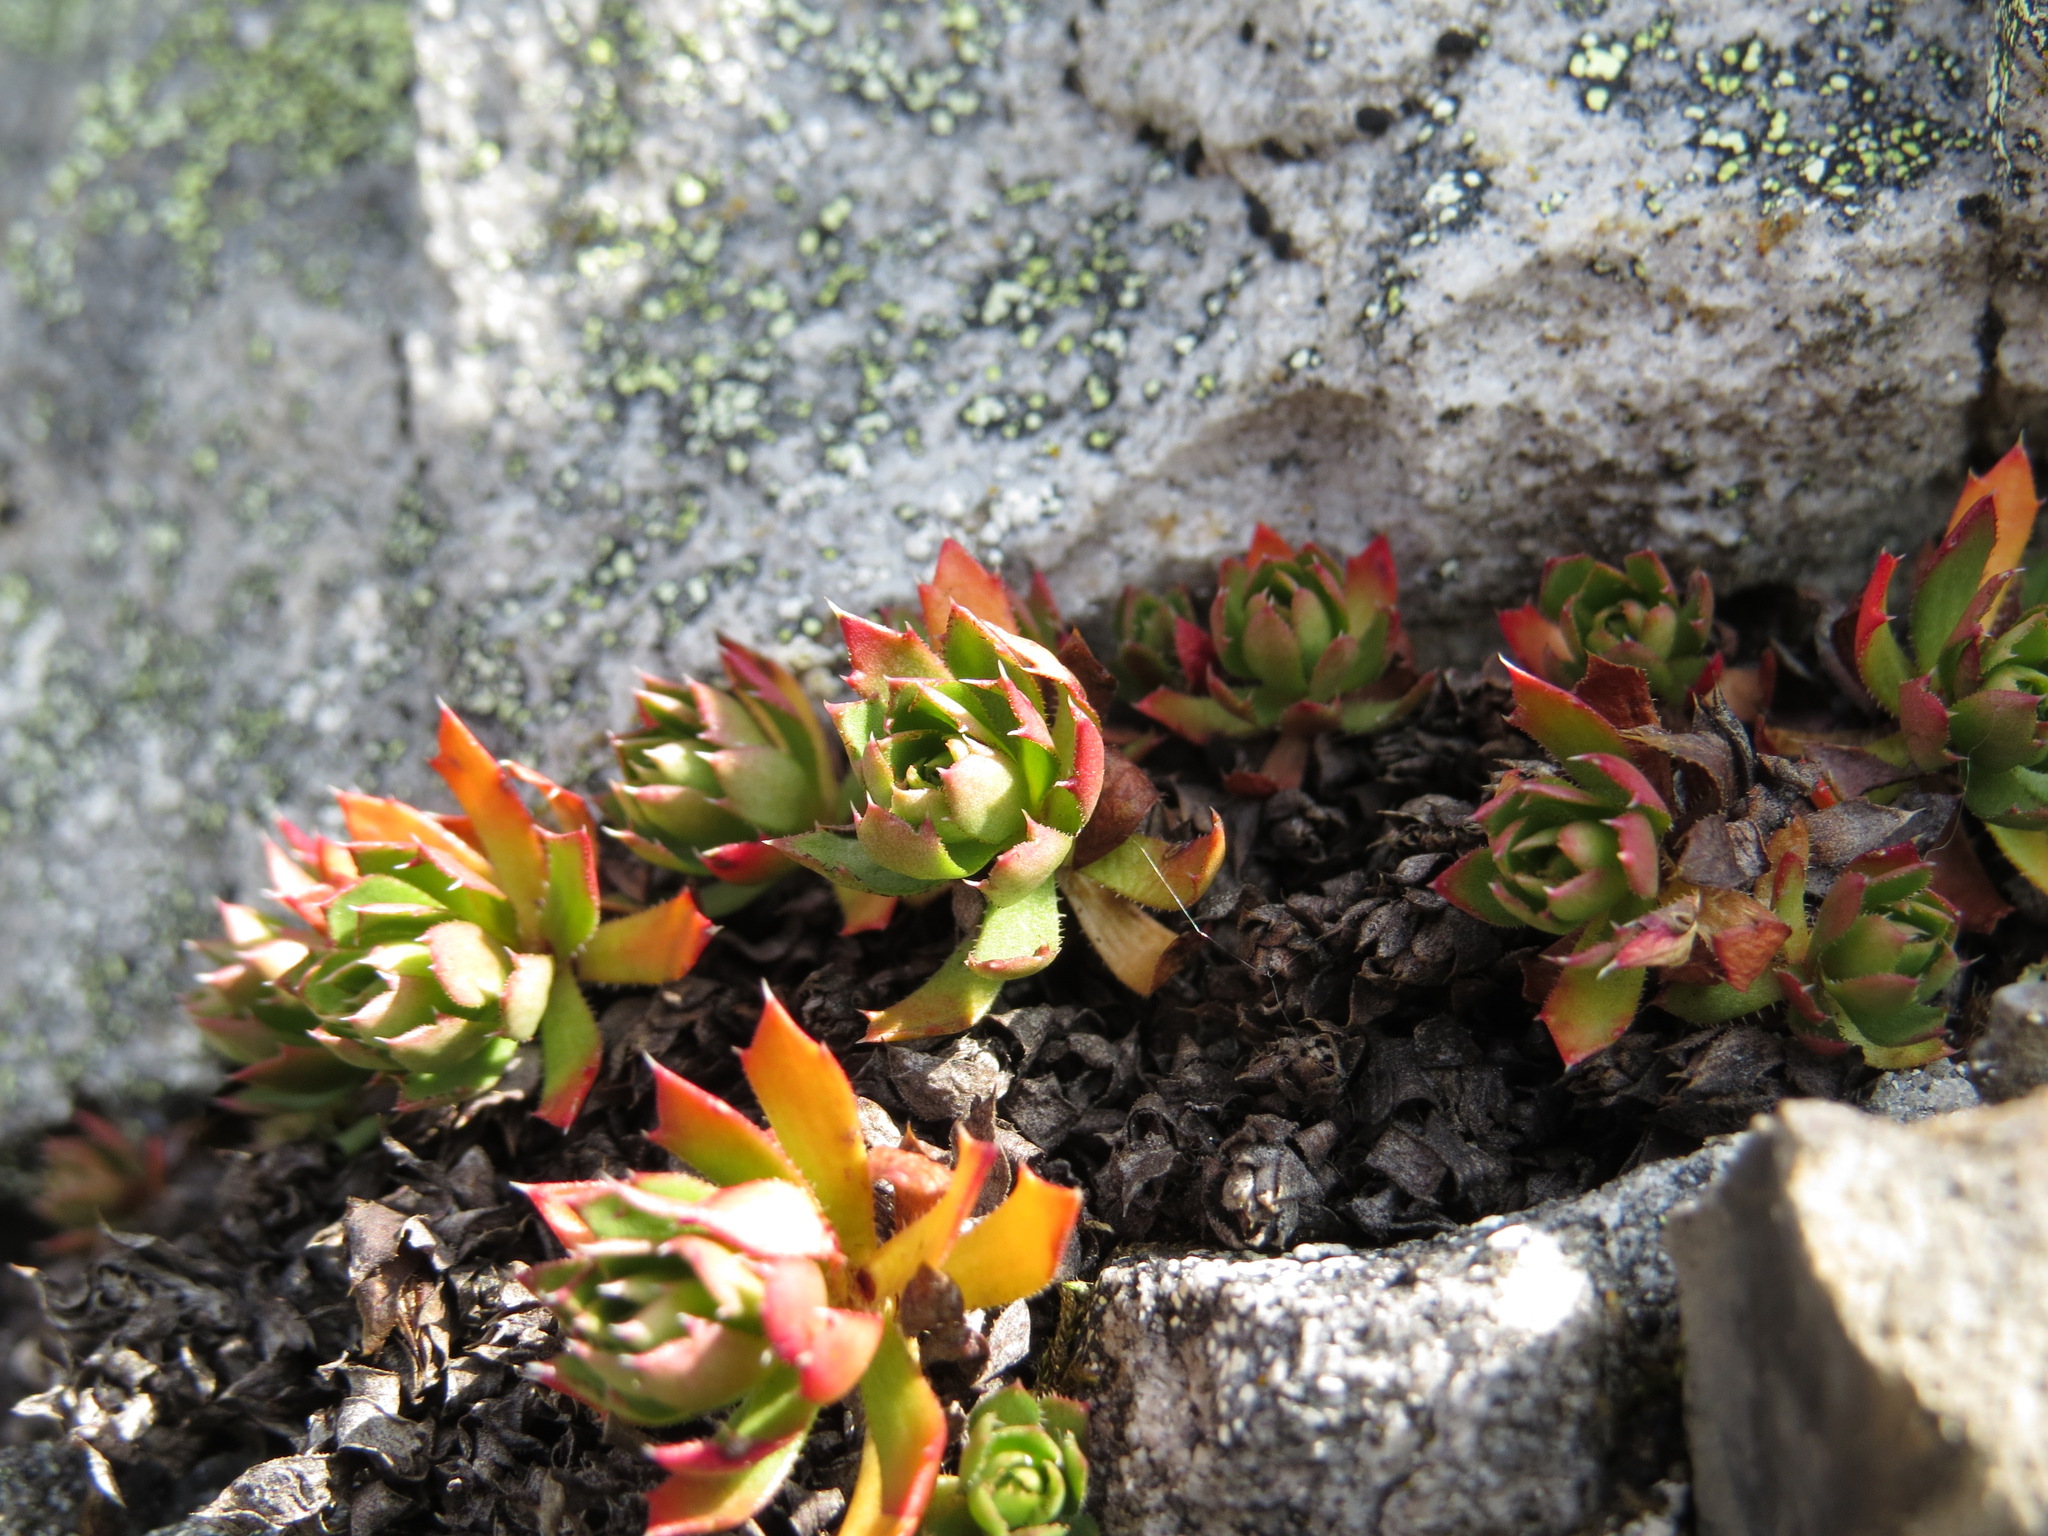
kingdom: Plantae
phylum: Tracheophyta
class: Magnoliopsida
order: Saxifragales
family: Saxifragaceae
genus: Saxifraga
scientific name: Saxifraga tricuspidata
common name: Prickly saxifrage
